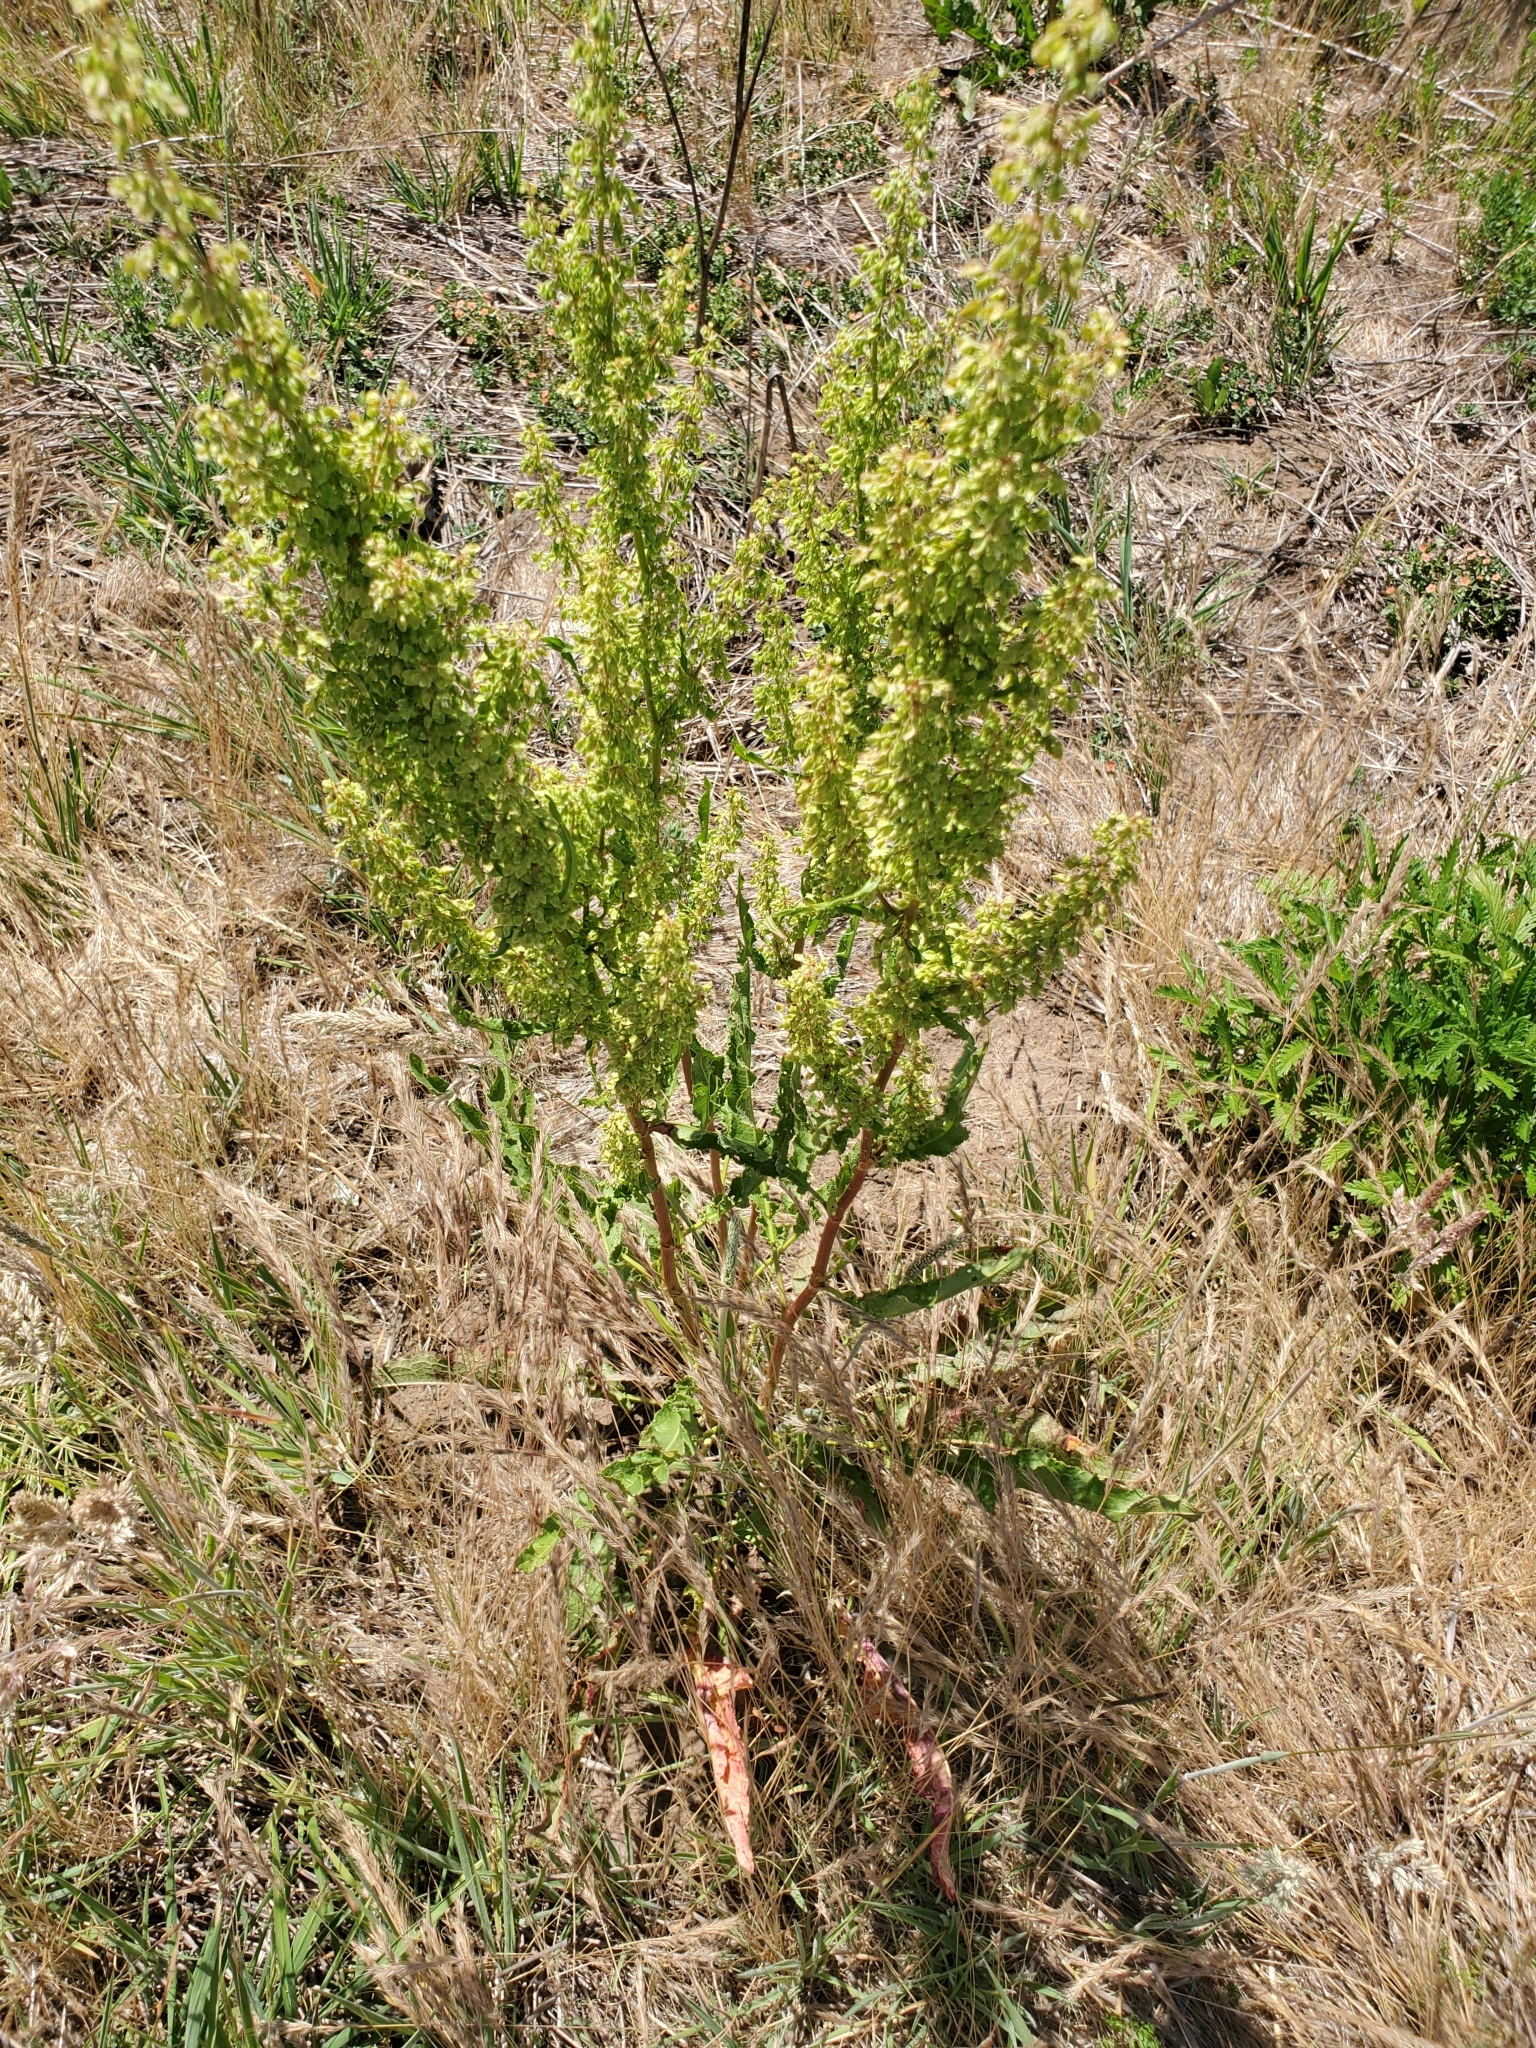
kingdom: Plantae
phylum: Tracheophyta
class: Magnoliopsida
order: Caryophyllales
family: Polygonaceae
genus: Rumex
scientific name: Rumex crispus
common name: Curled dock
